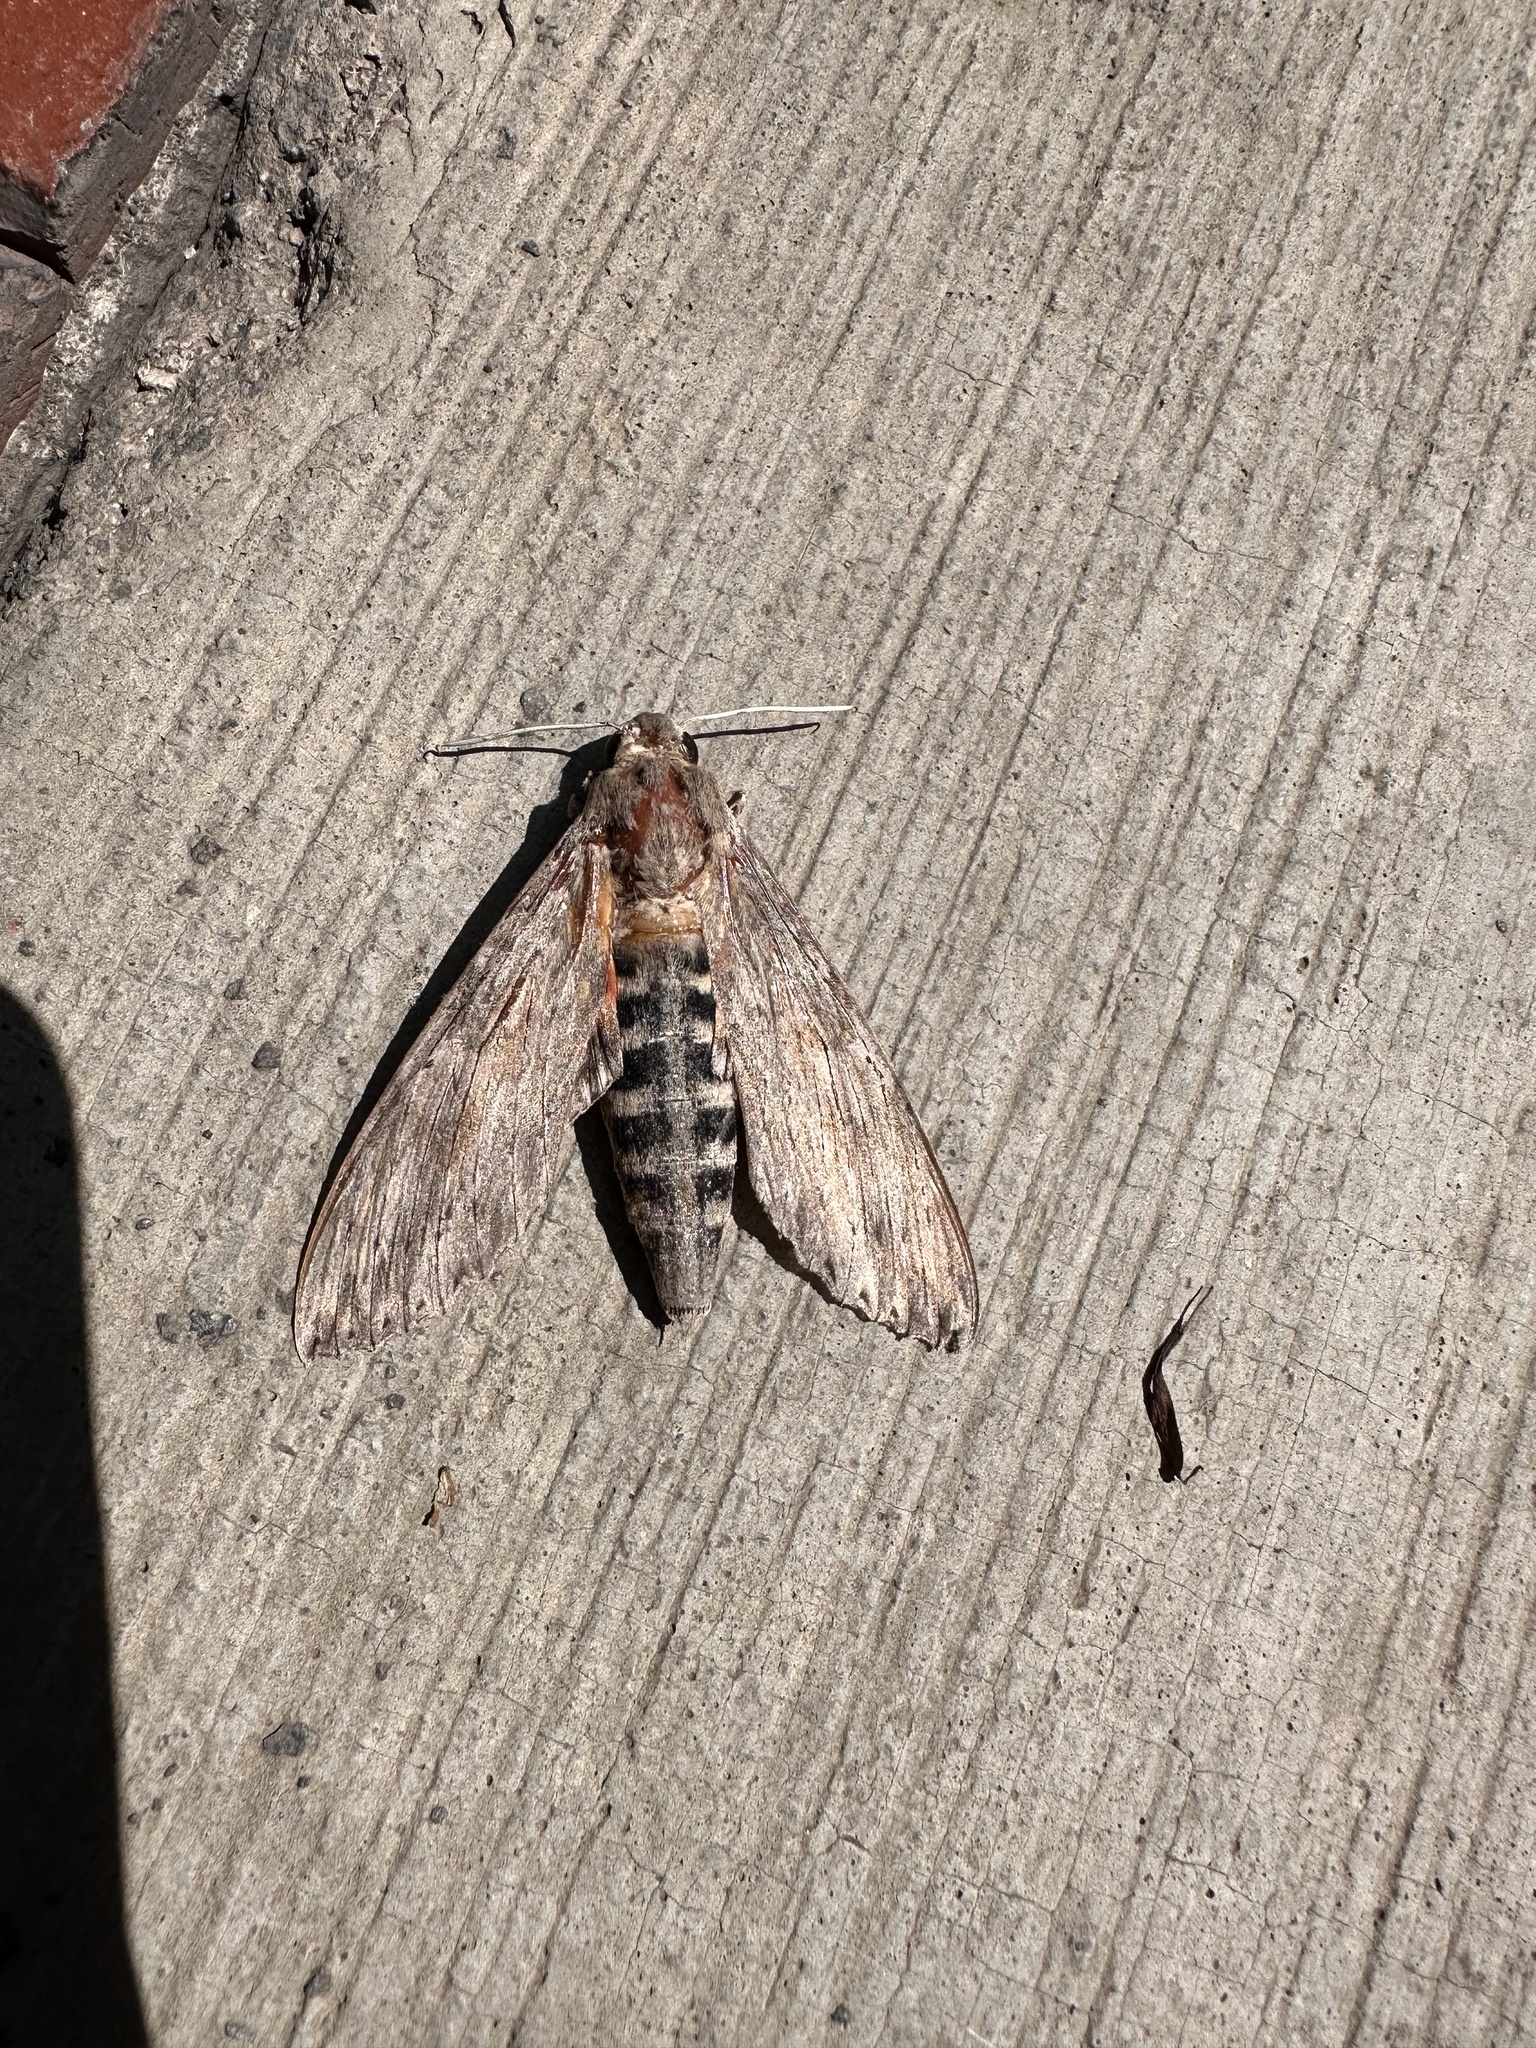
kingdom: Animalia
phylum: Arthropoda
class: Insecta
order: Lepidoptera
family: Sphingidae
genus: Erinnyis
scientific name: Erinnyis ello
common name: Ello sphinx
